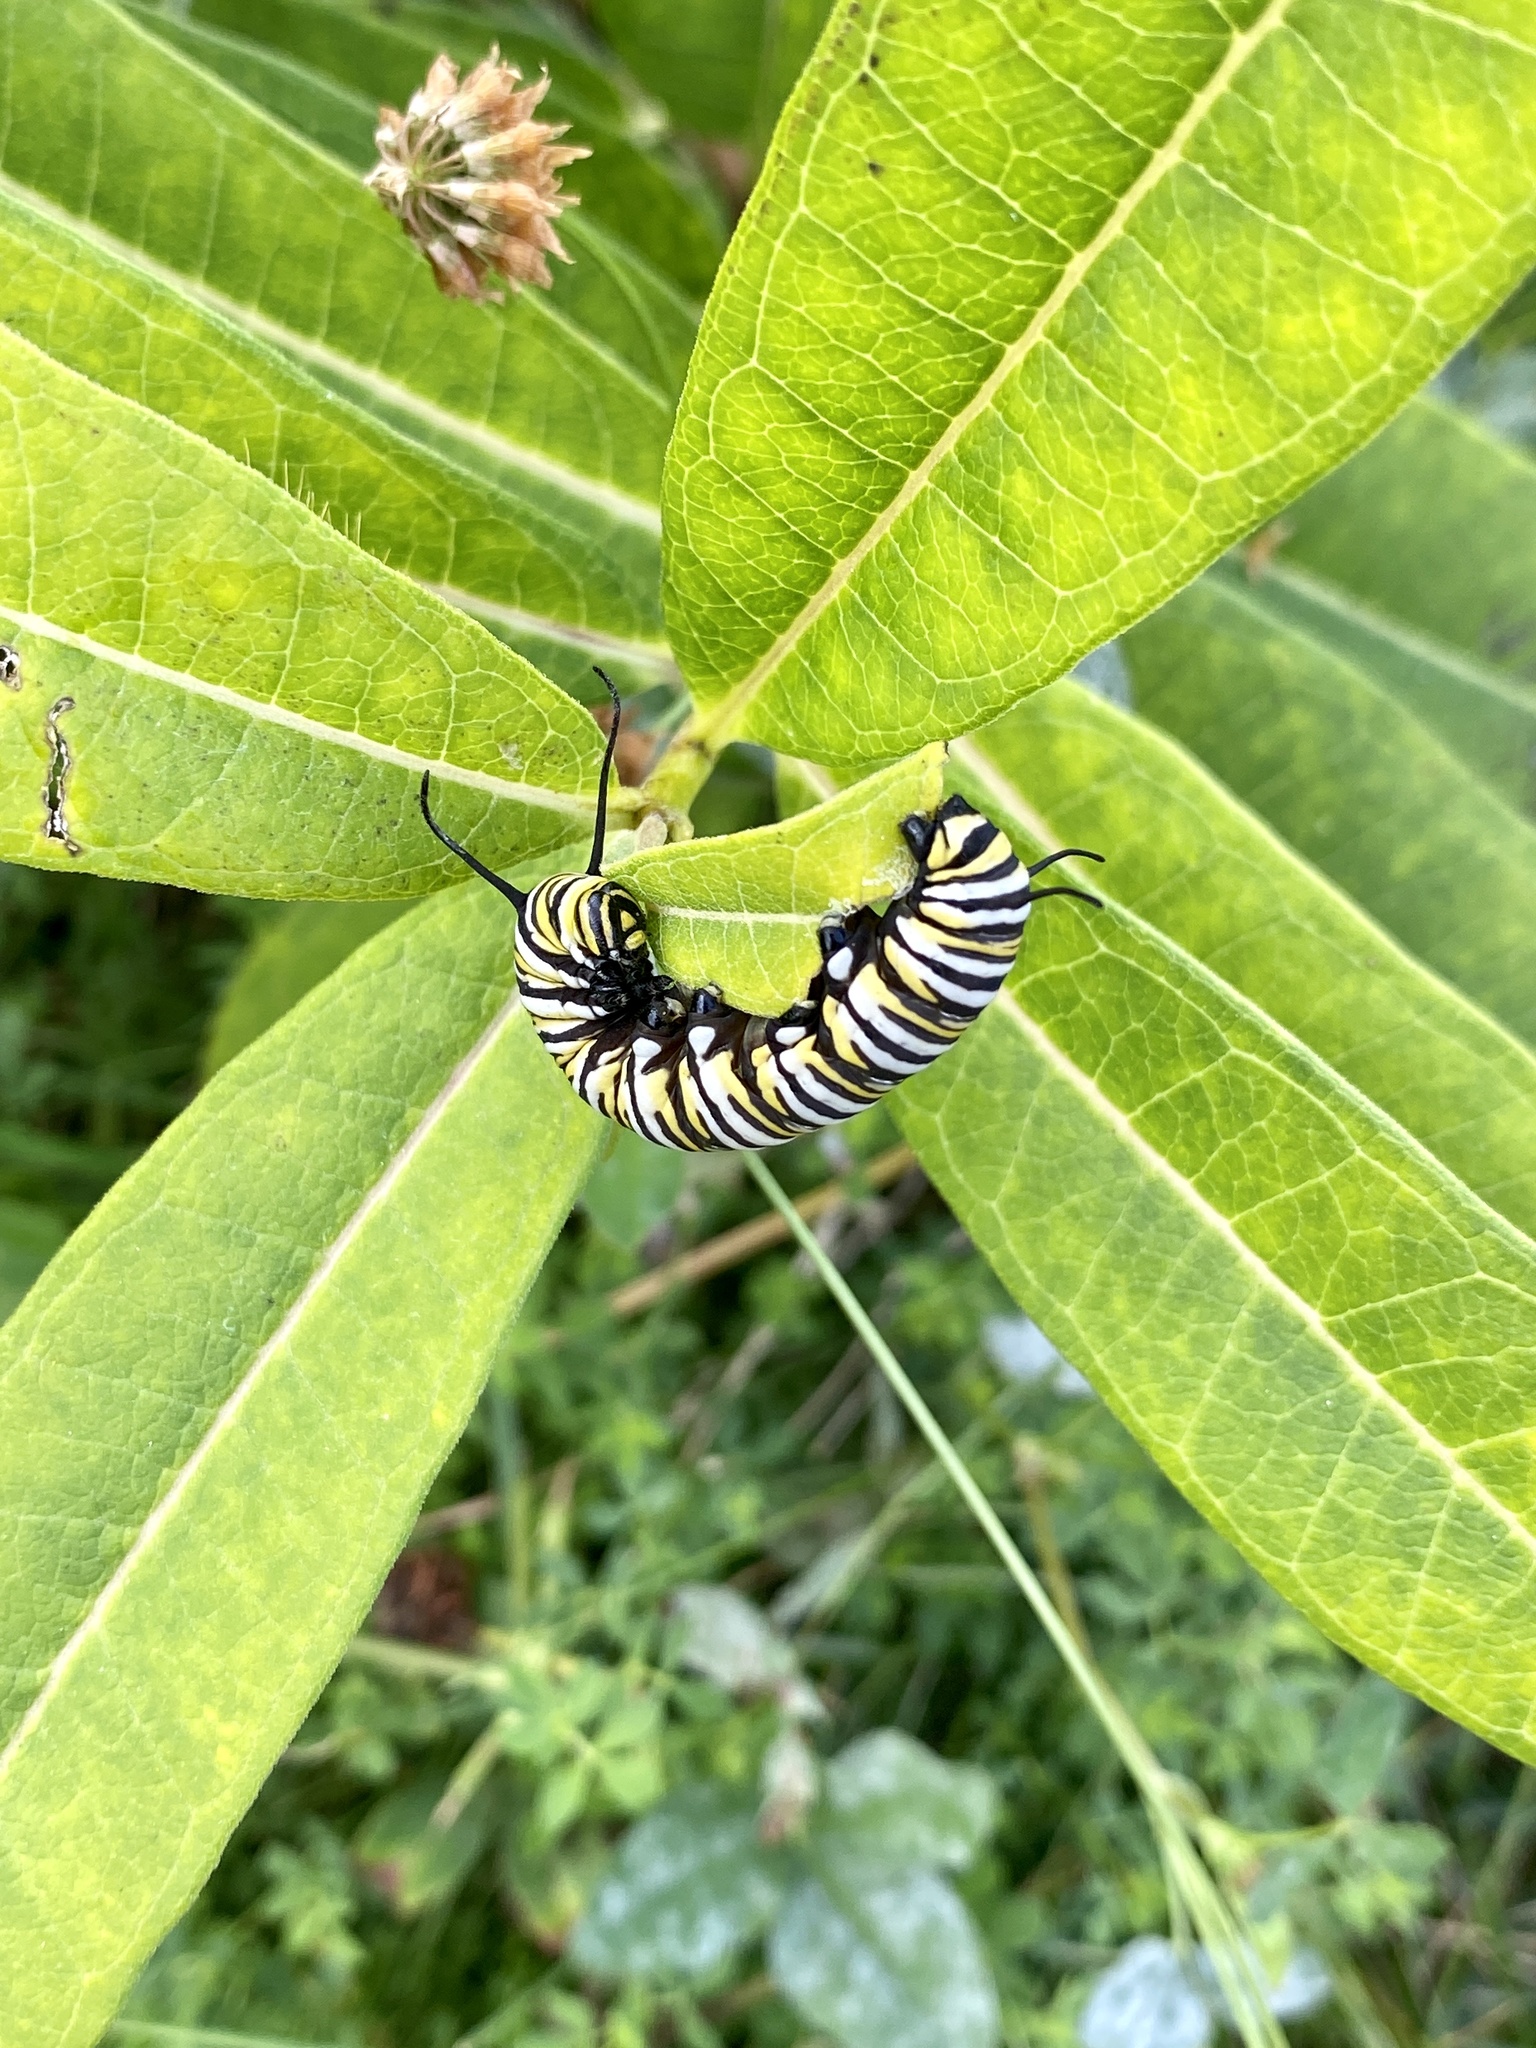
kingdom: Animalia
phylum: Arthropoda
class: Insecta
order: Lepidoptera
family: Nymphalidae
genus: Danaus
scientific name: Danaus plexippus
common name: Monarch
